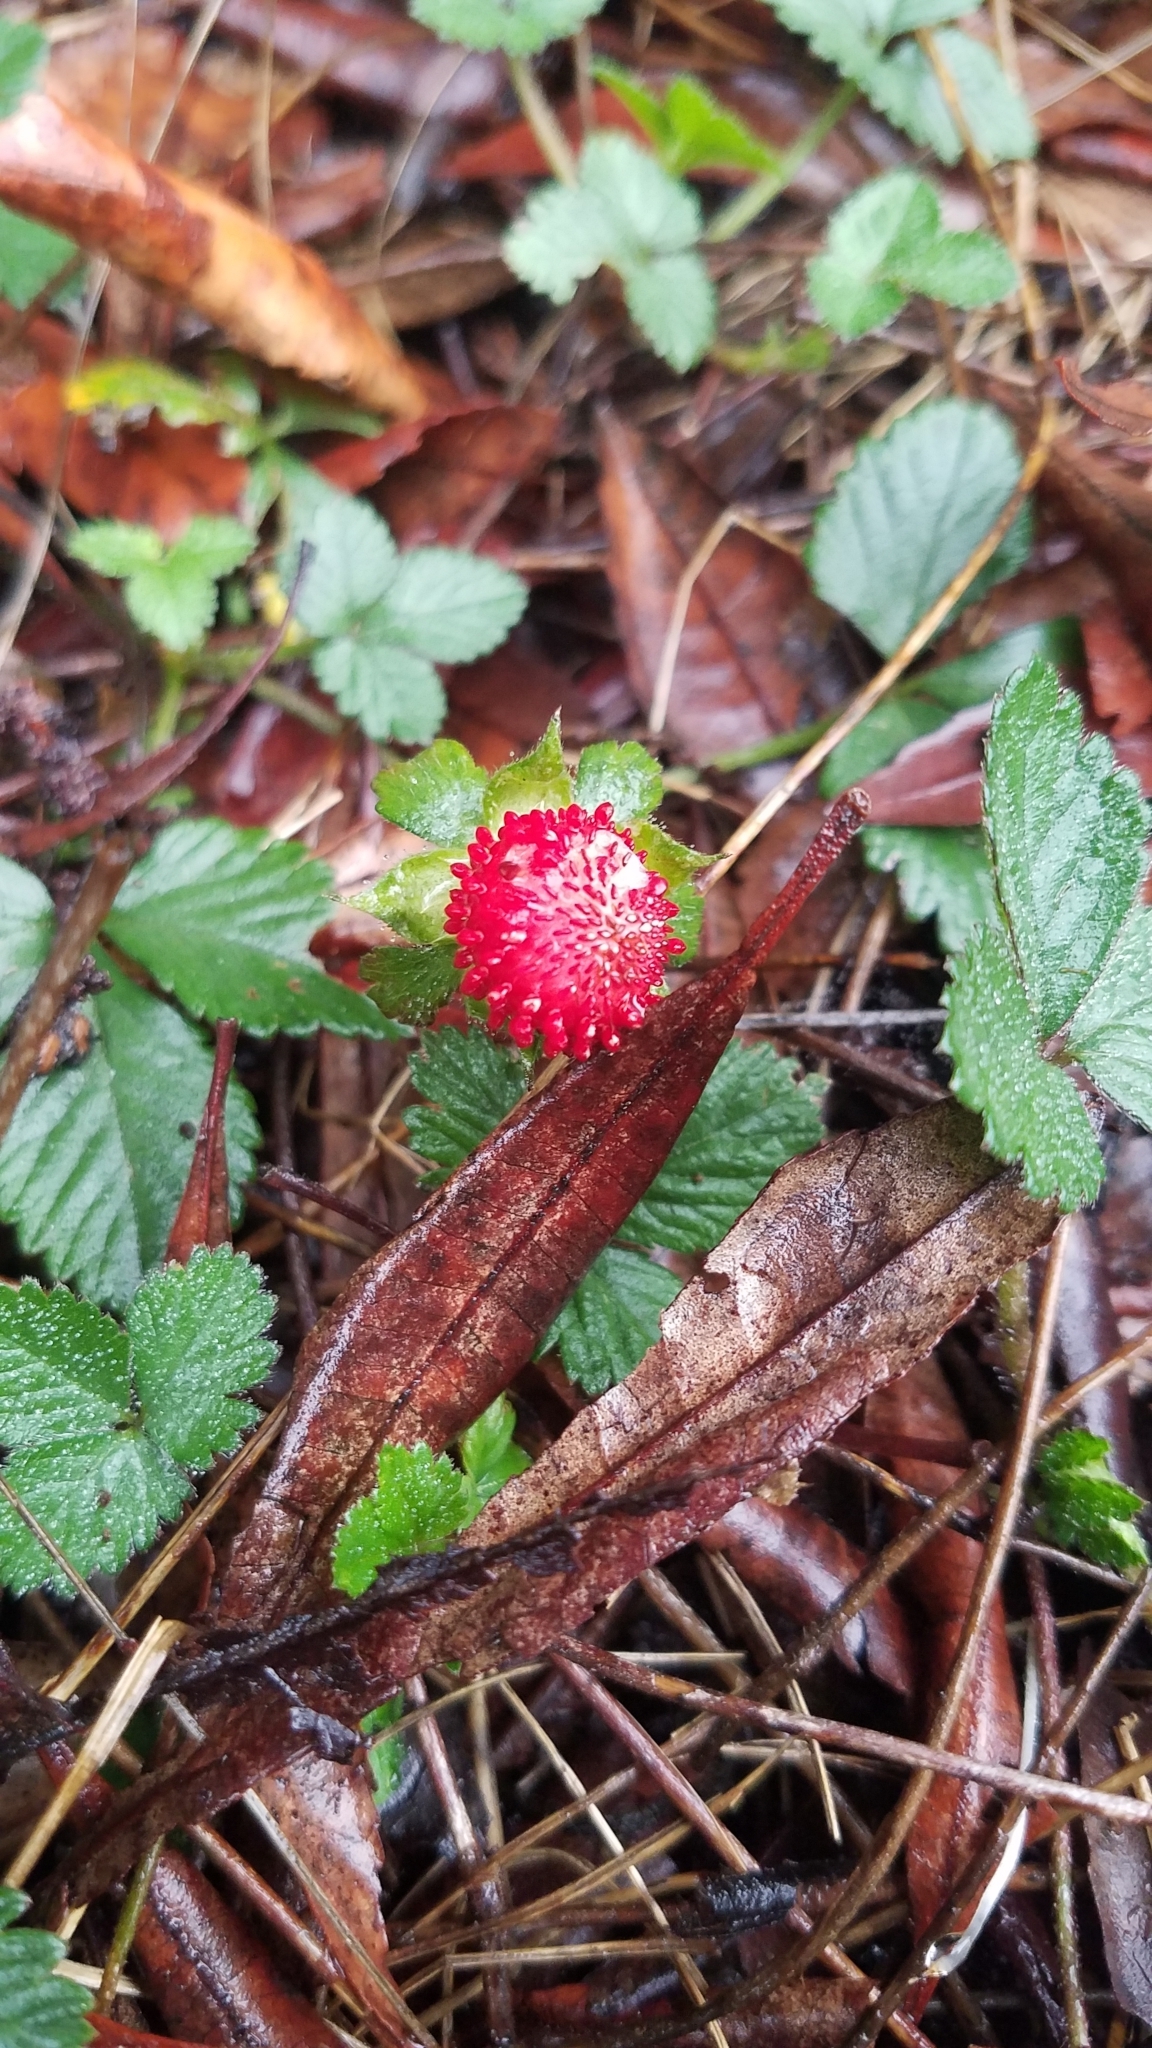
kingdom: Plantae
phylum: Tracheophyta
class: Magnoliopsida
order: Rosales
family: Rosaceae
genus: Potentilla
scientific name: Potentilla indica
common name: Yellow-flowered strawberry
